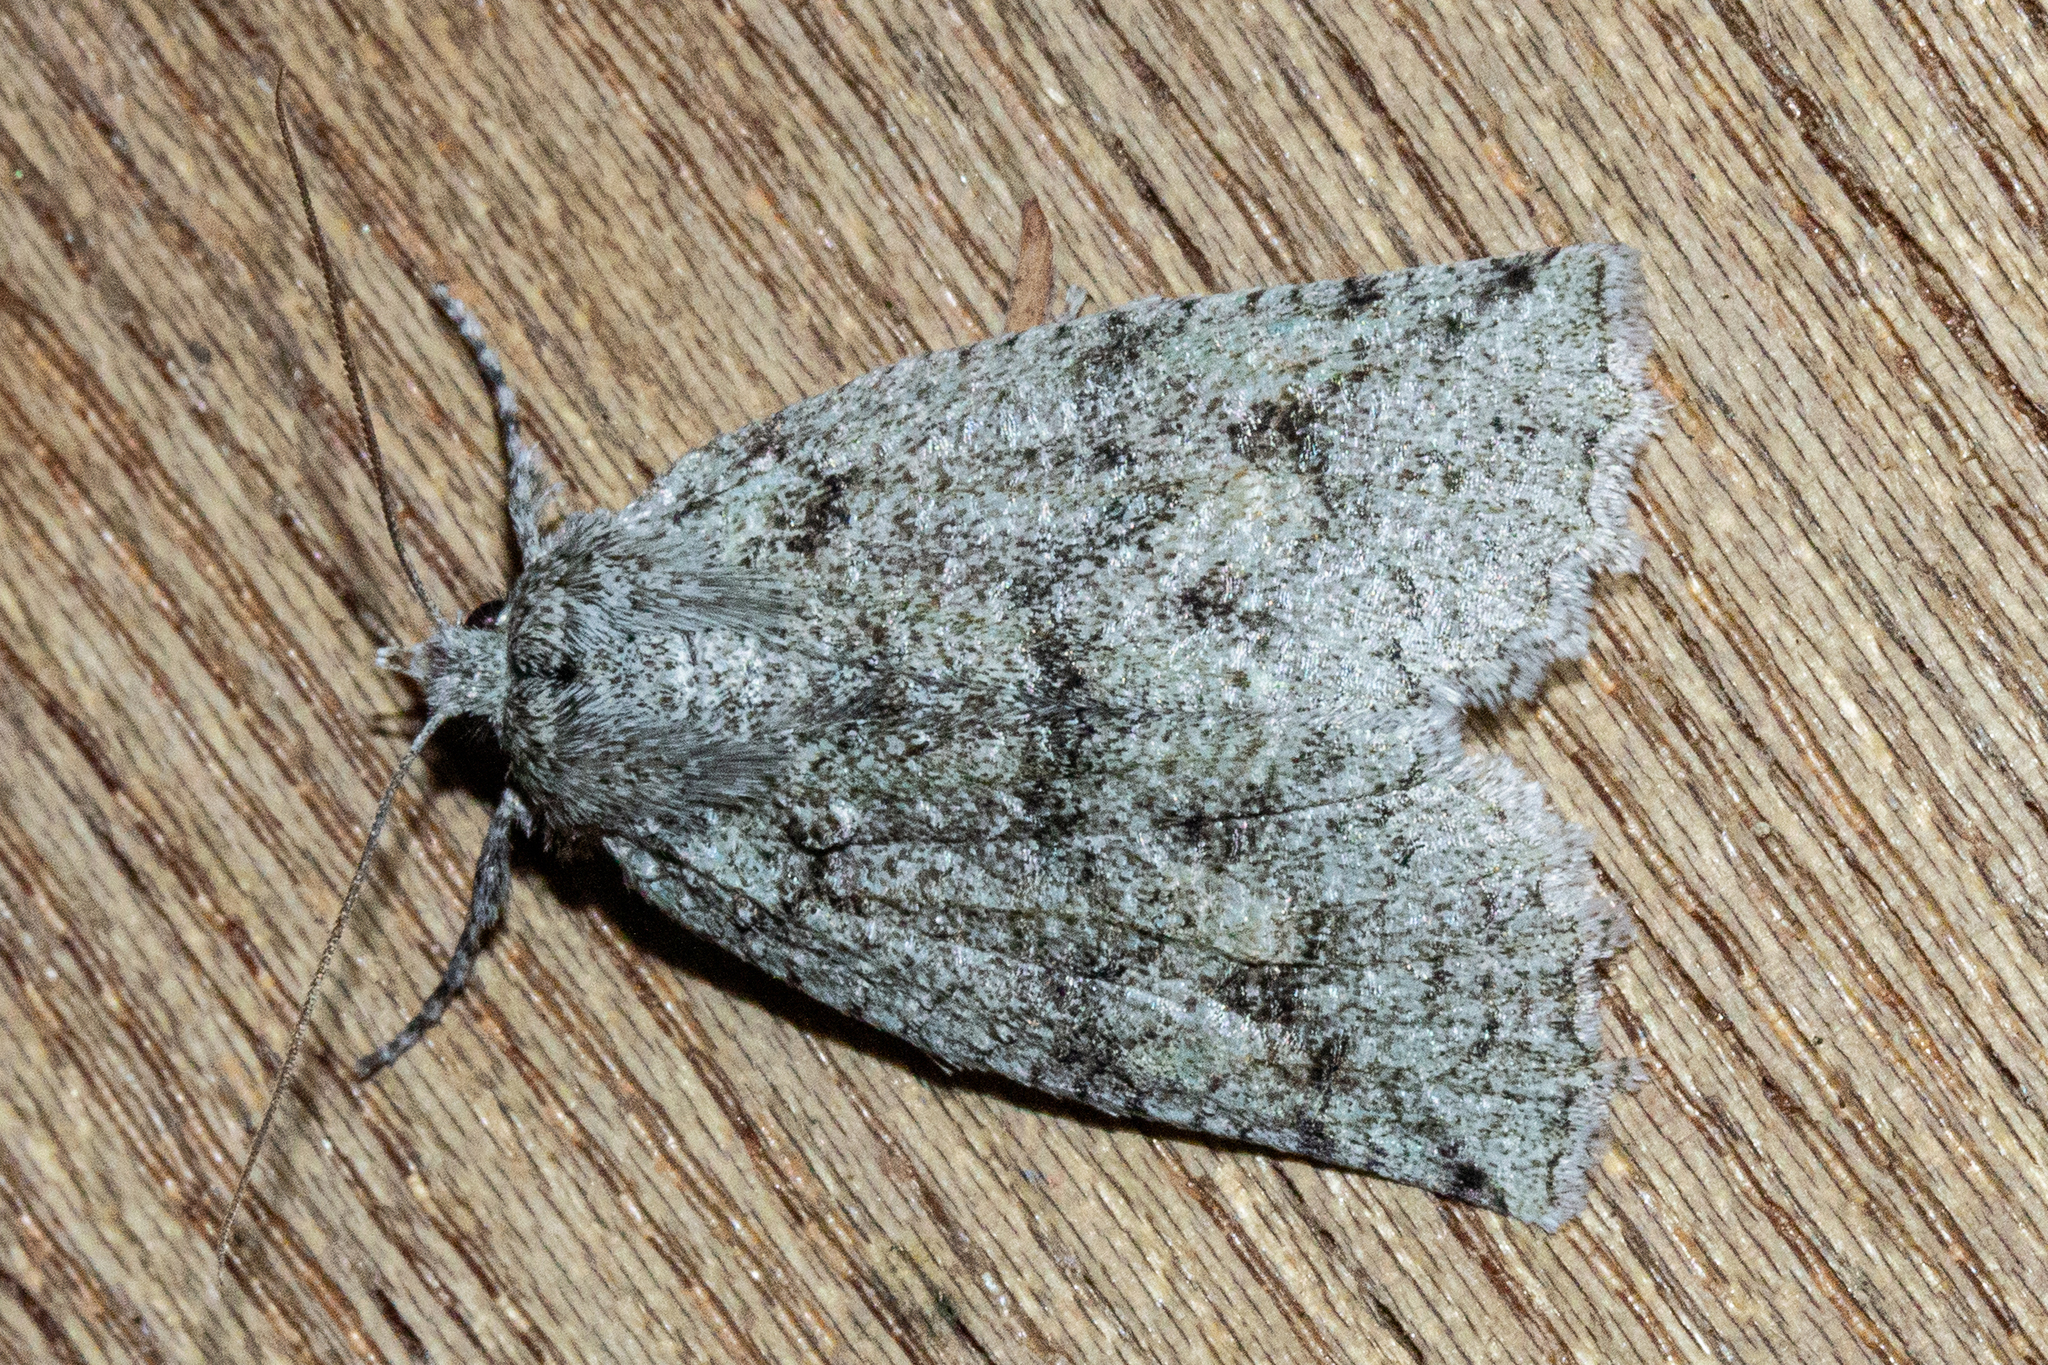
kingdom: Animalia
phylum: Arthropoda
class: Insecta
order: Lepidoptera
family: Geometridae
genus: Declana
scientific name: Declana floccosa
